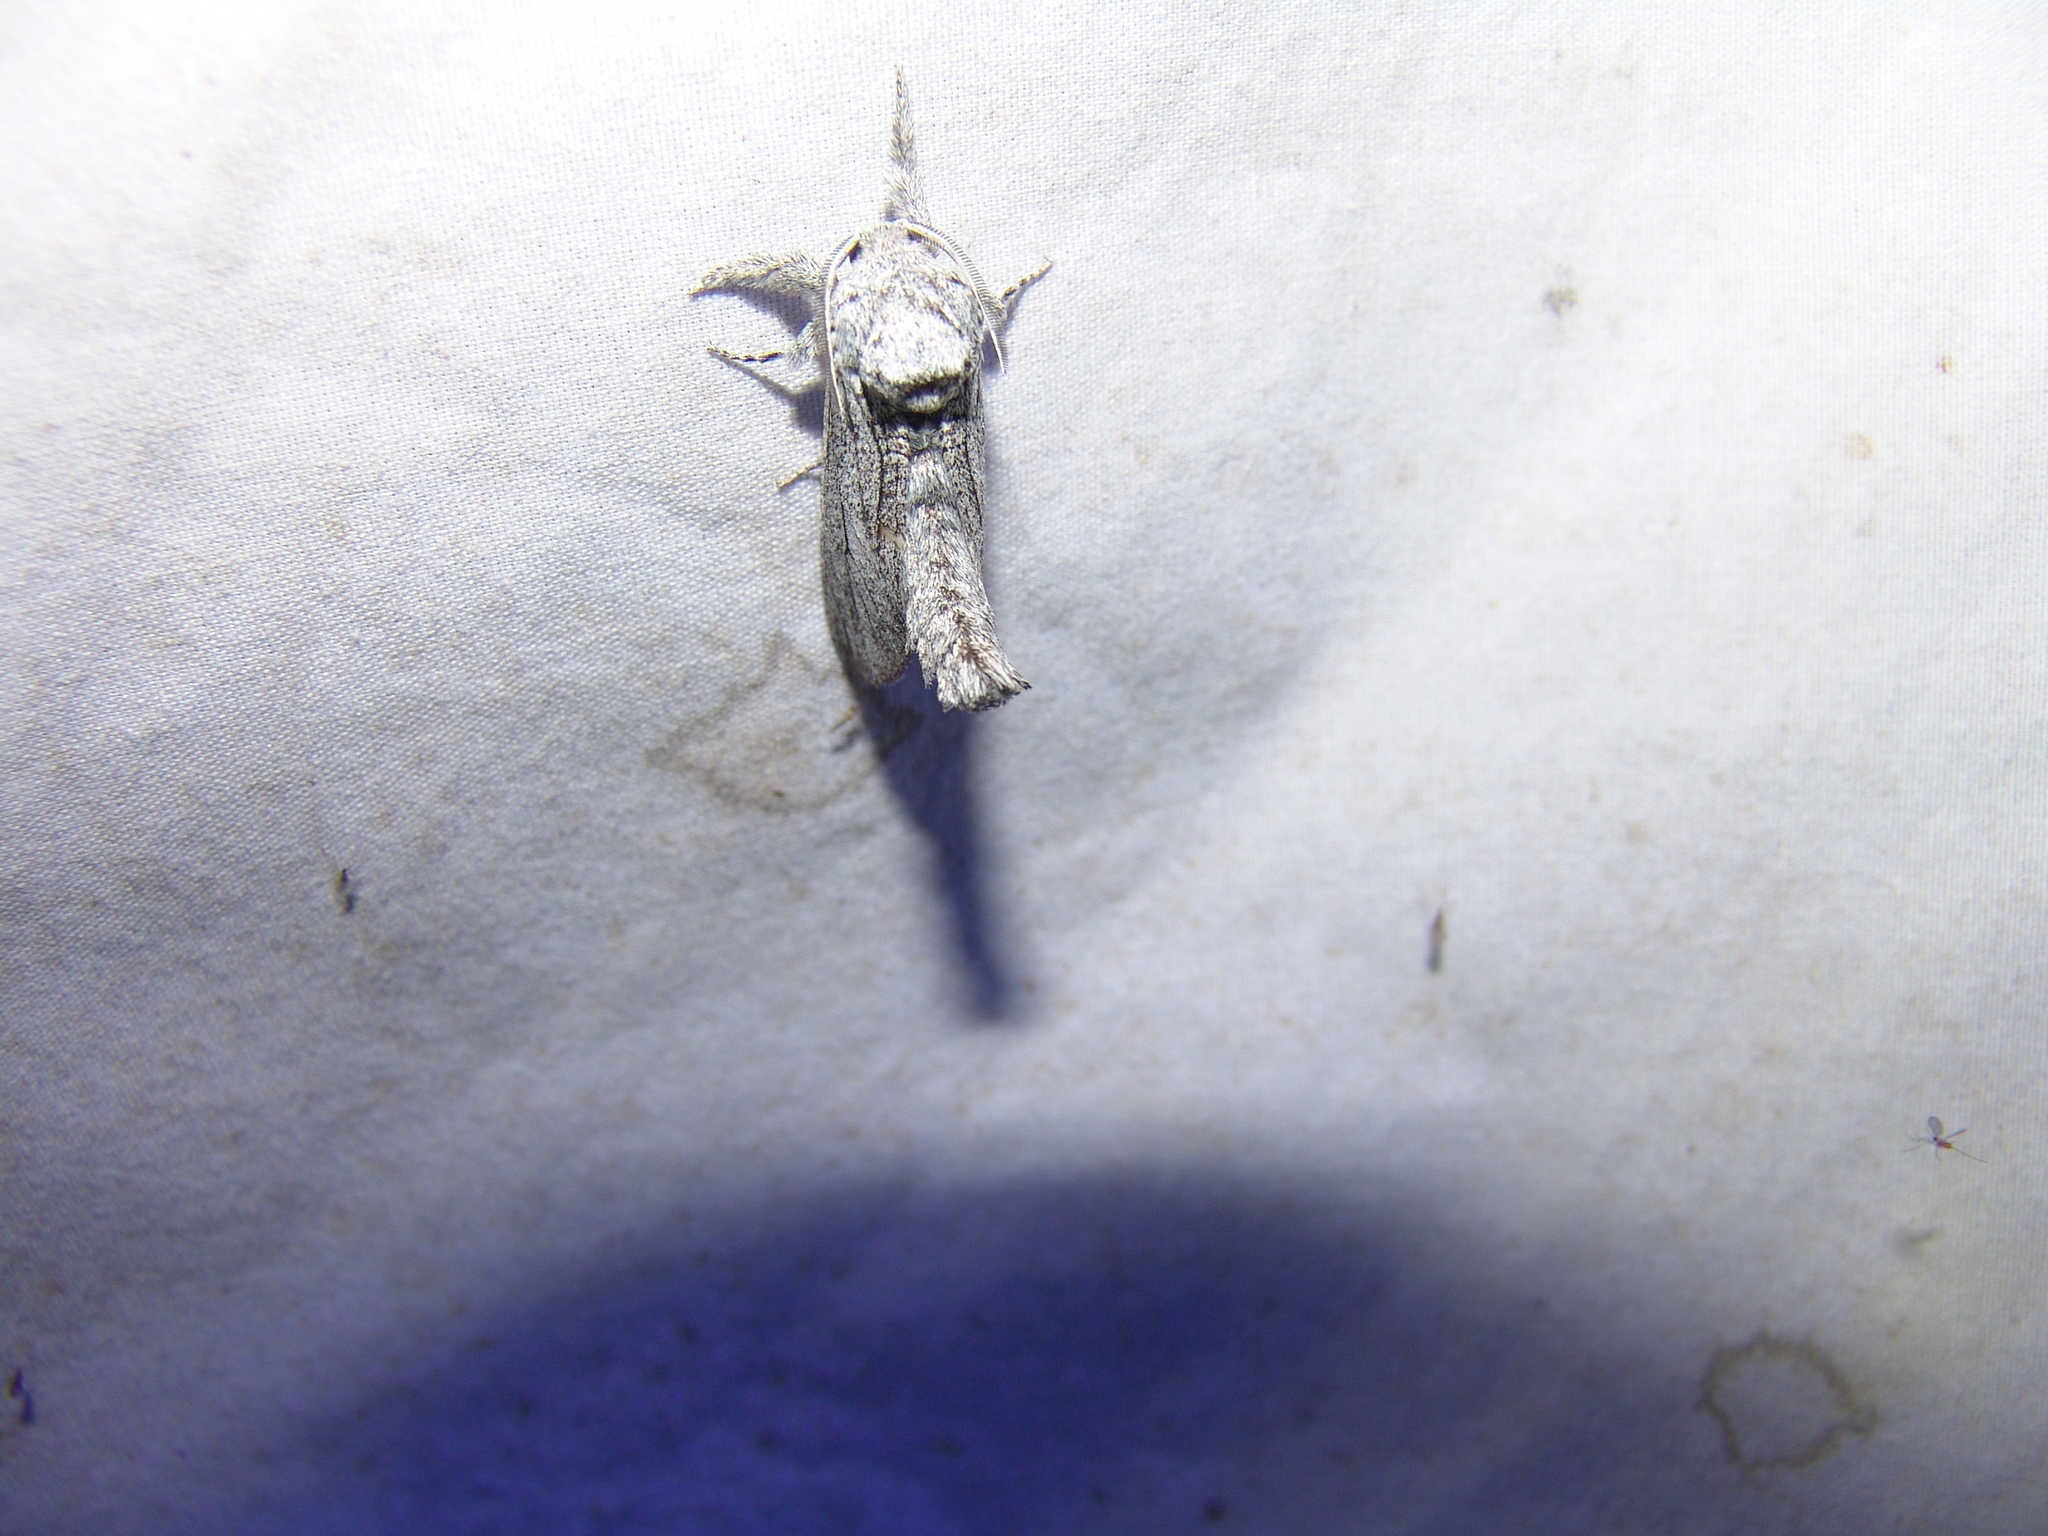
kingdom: Animalia
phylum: Arthropoda
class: Insecta
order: Lepidoptera
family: Cossidae
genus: Inguromorpha
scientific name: Inguromorpha
